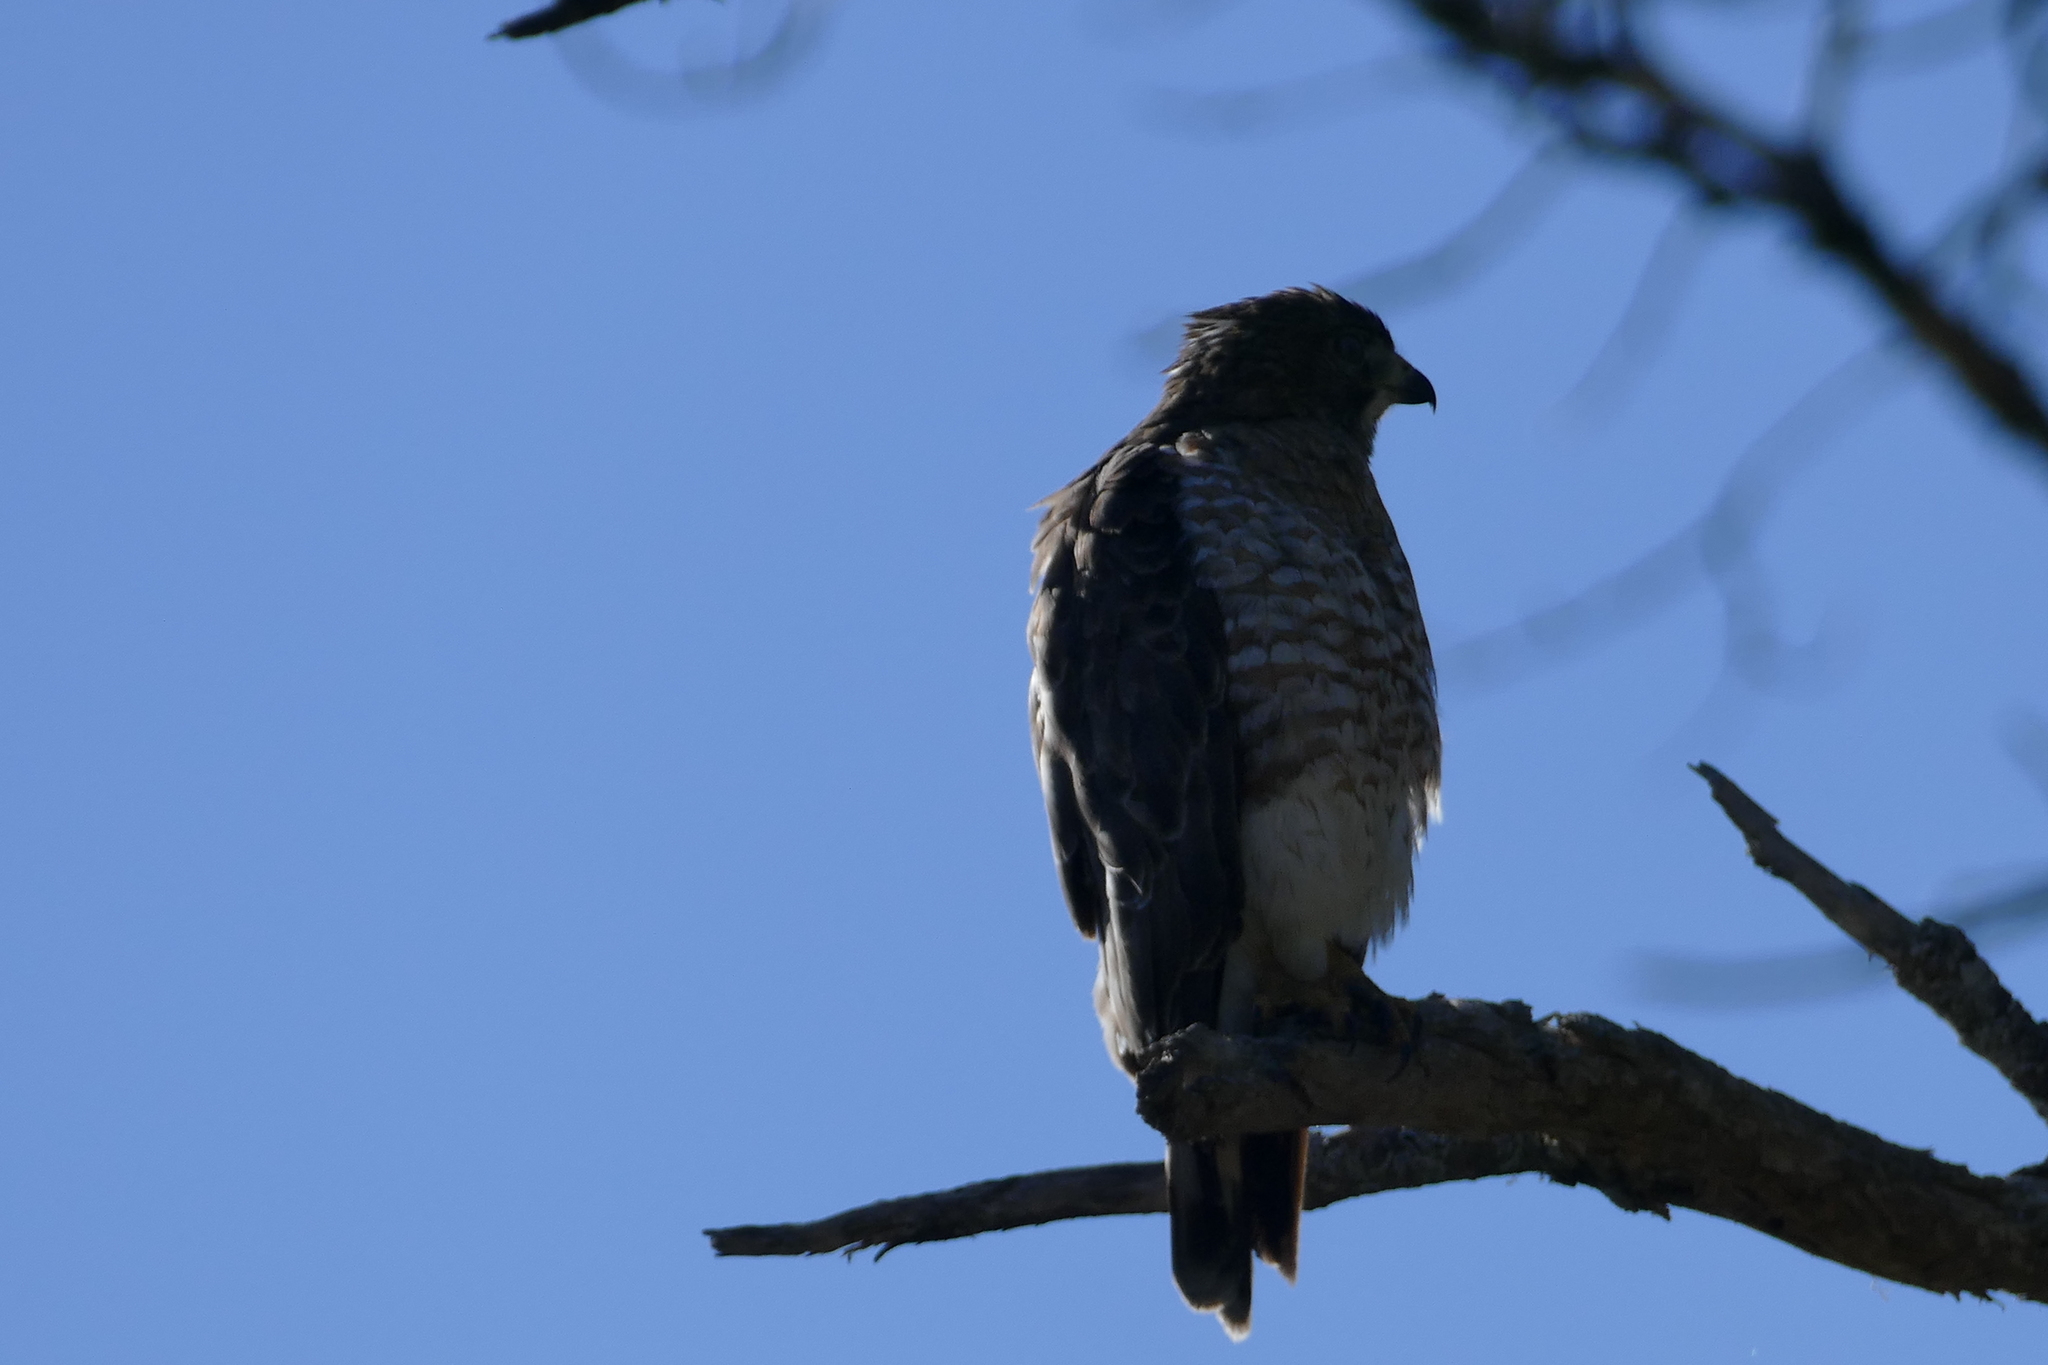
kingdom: Animalia
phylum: Chordata
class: Aves
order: Accipitriformes
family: Accipitridae
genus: Buteo
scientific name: Buteo platypterus
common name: Broad-winged hawk
